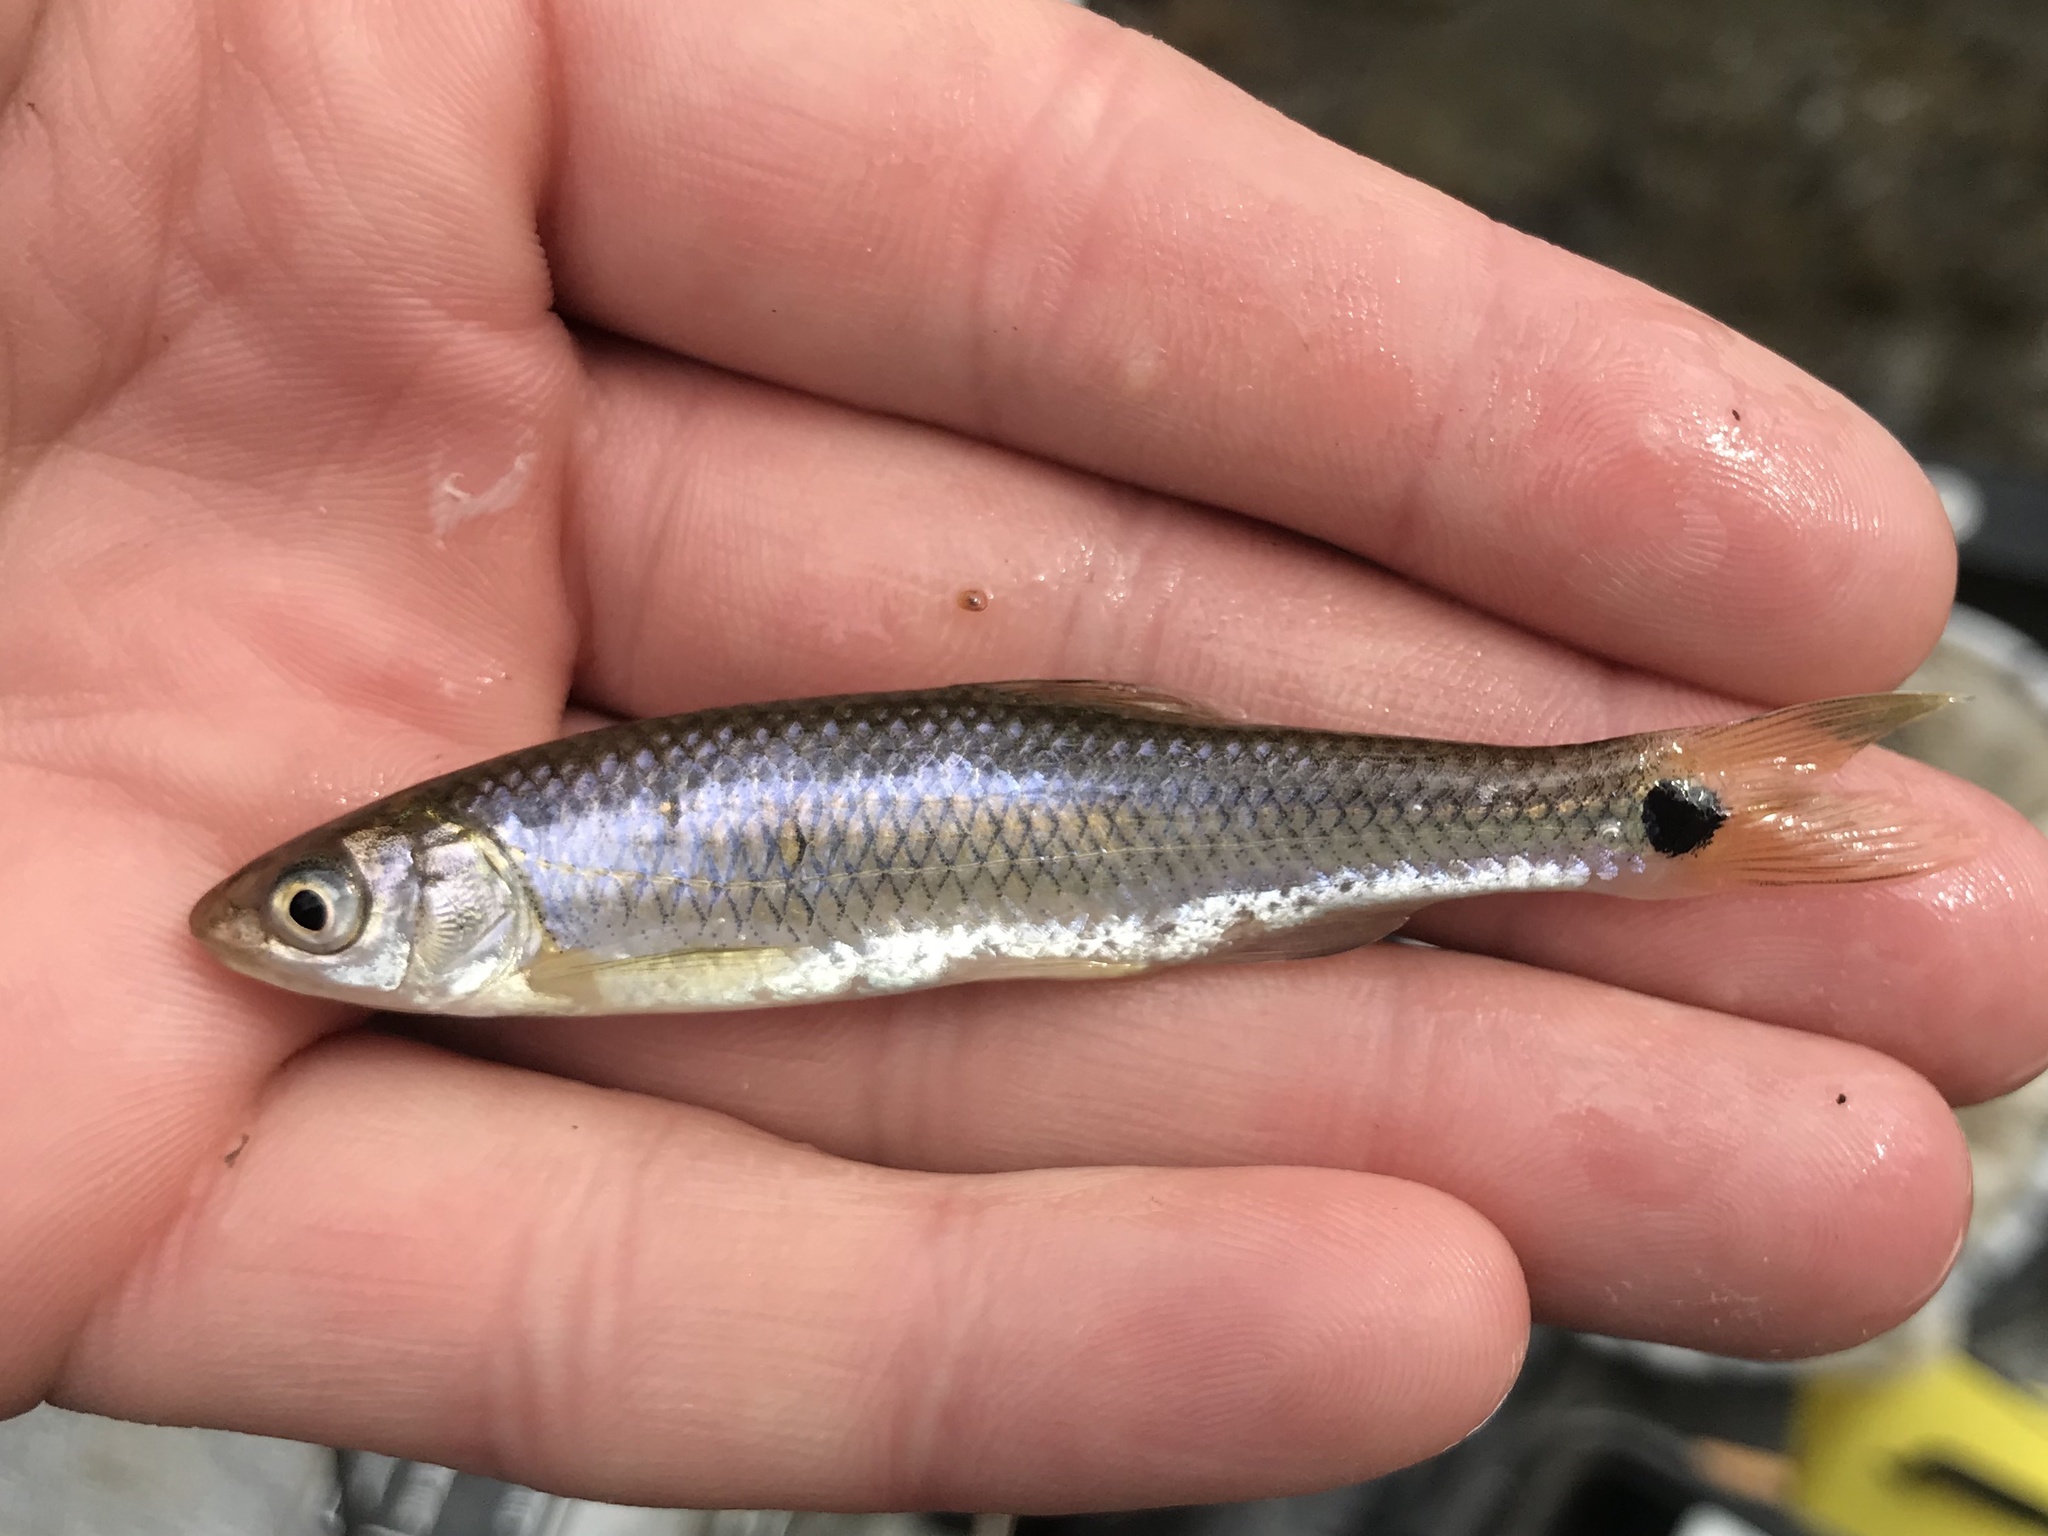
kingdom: Animalia
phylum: Chordata
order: Cypriniformes
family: Cyprinidae
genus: Cyprinella
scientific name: Cyprinella venusta
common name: Blacktail shiner
